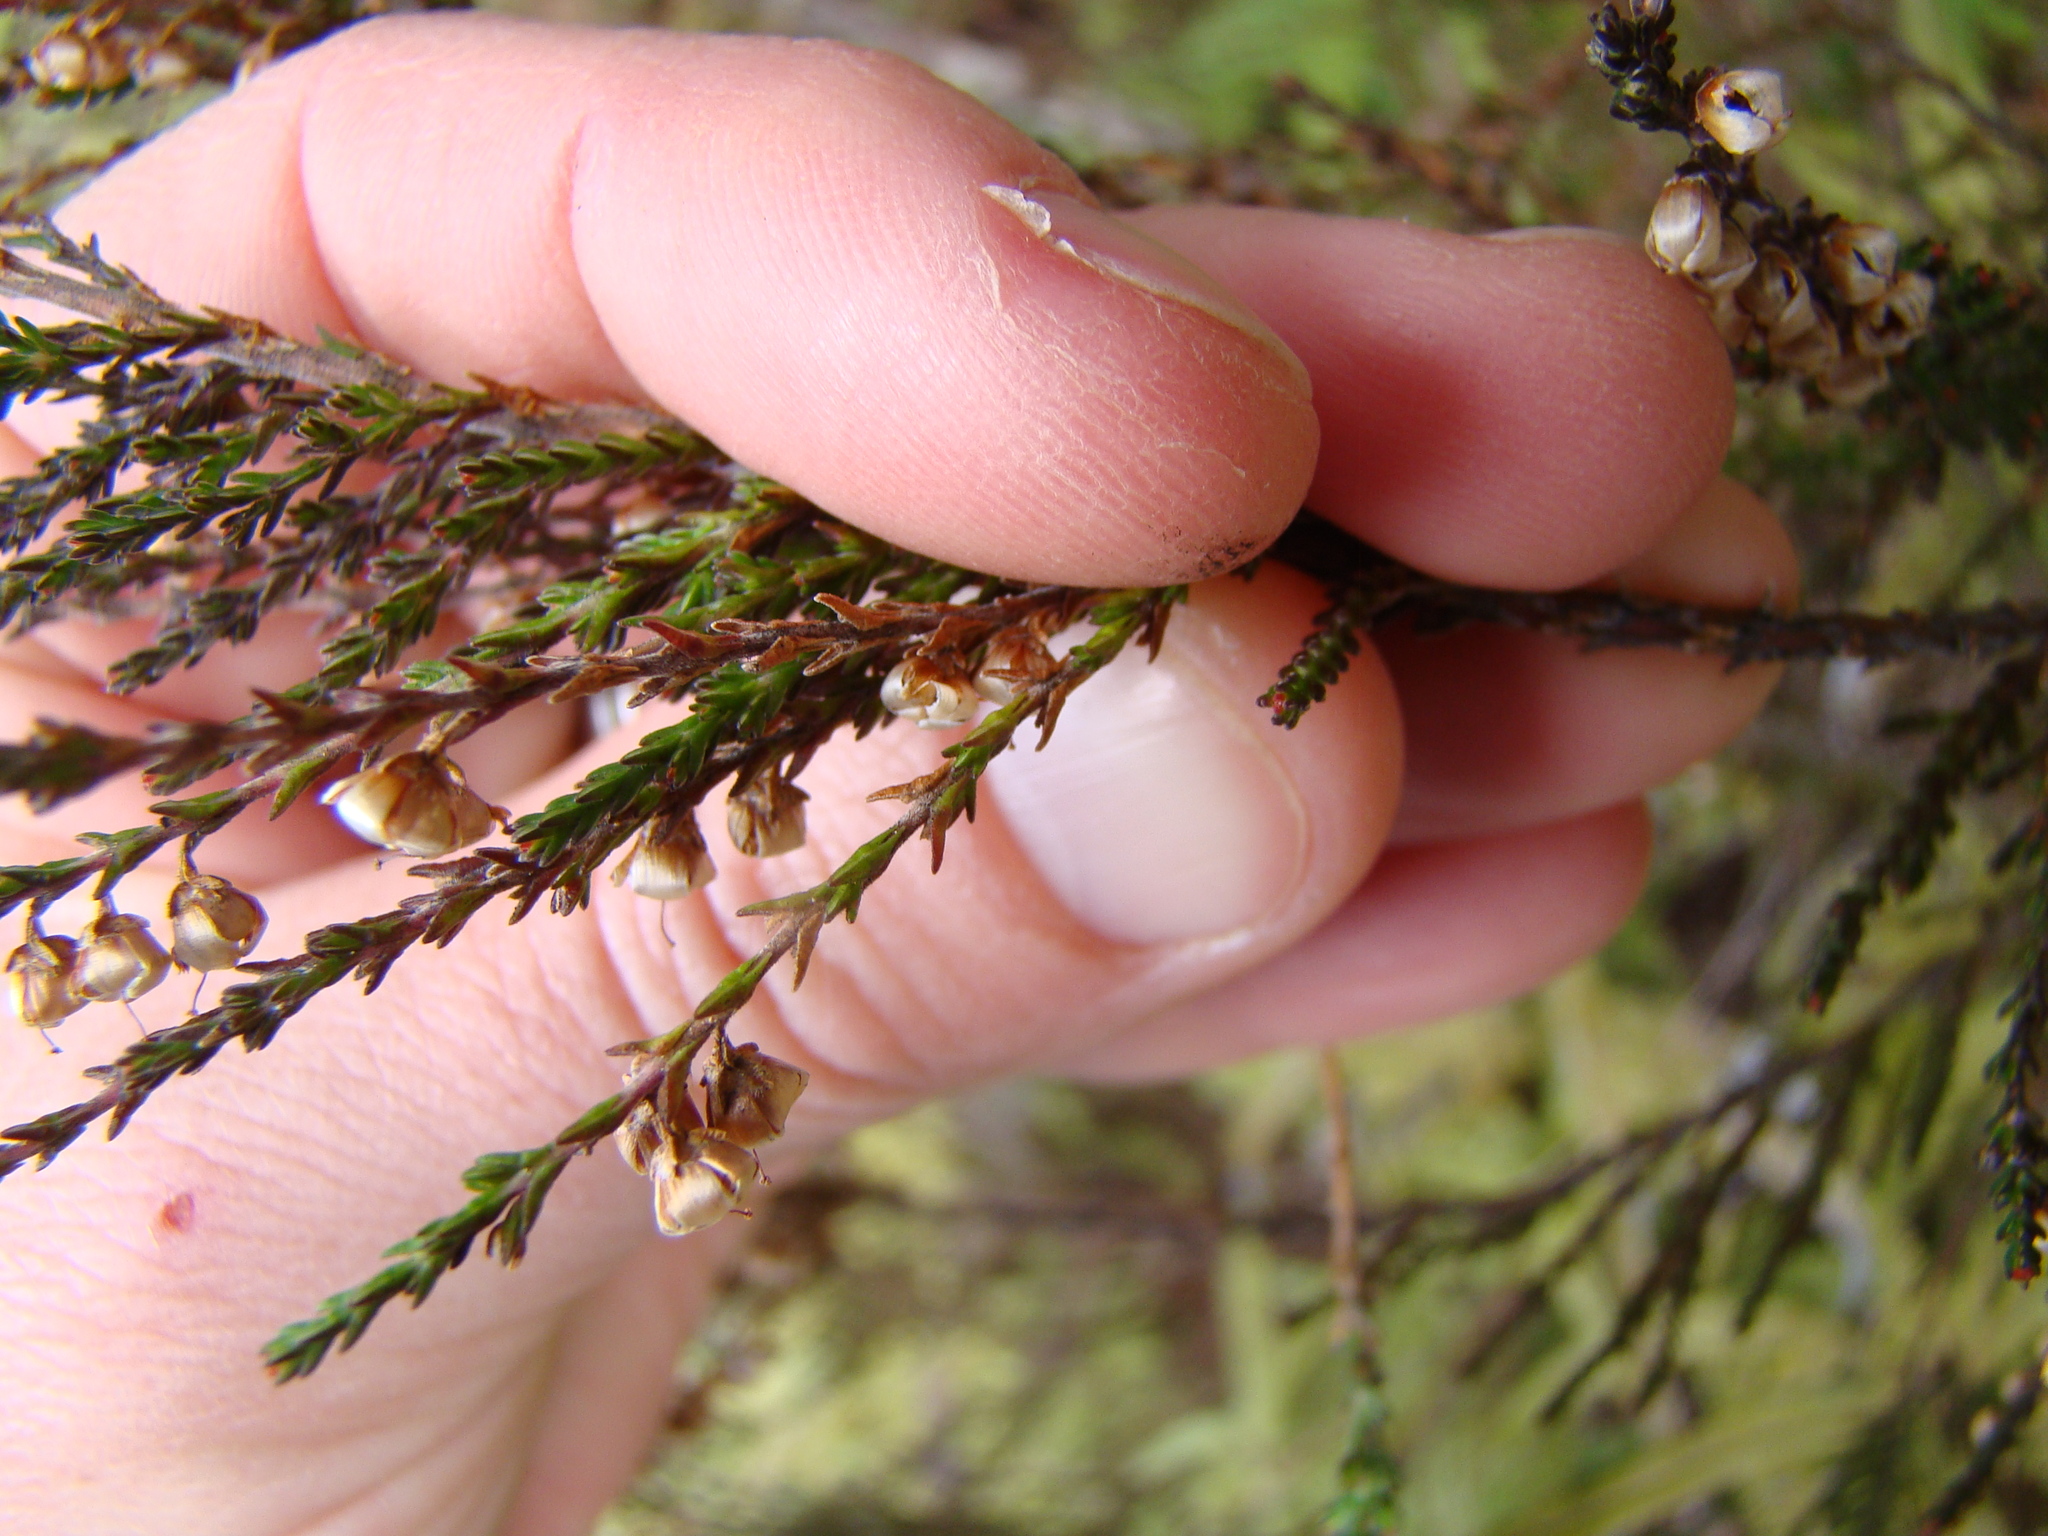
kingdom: Plantae
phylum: Tracheophyta
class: Magnoliopsida
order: Ericales
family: Ericaceae
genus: Calluna
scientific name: Calluna vulgaris
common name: Heather
